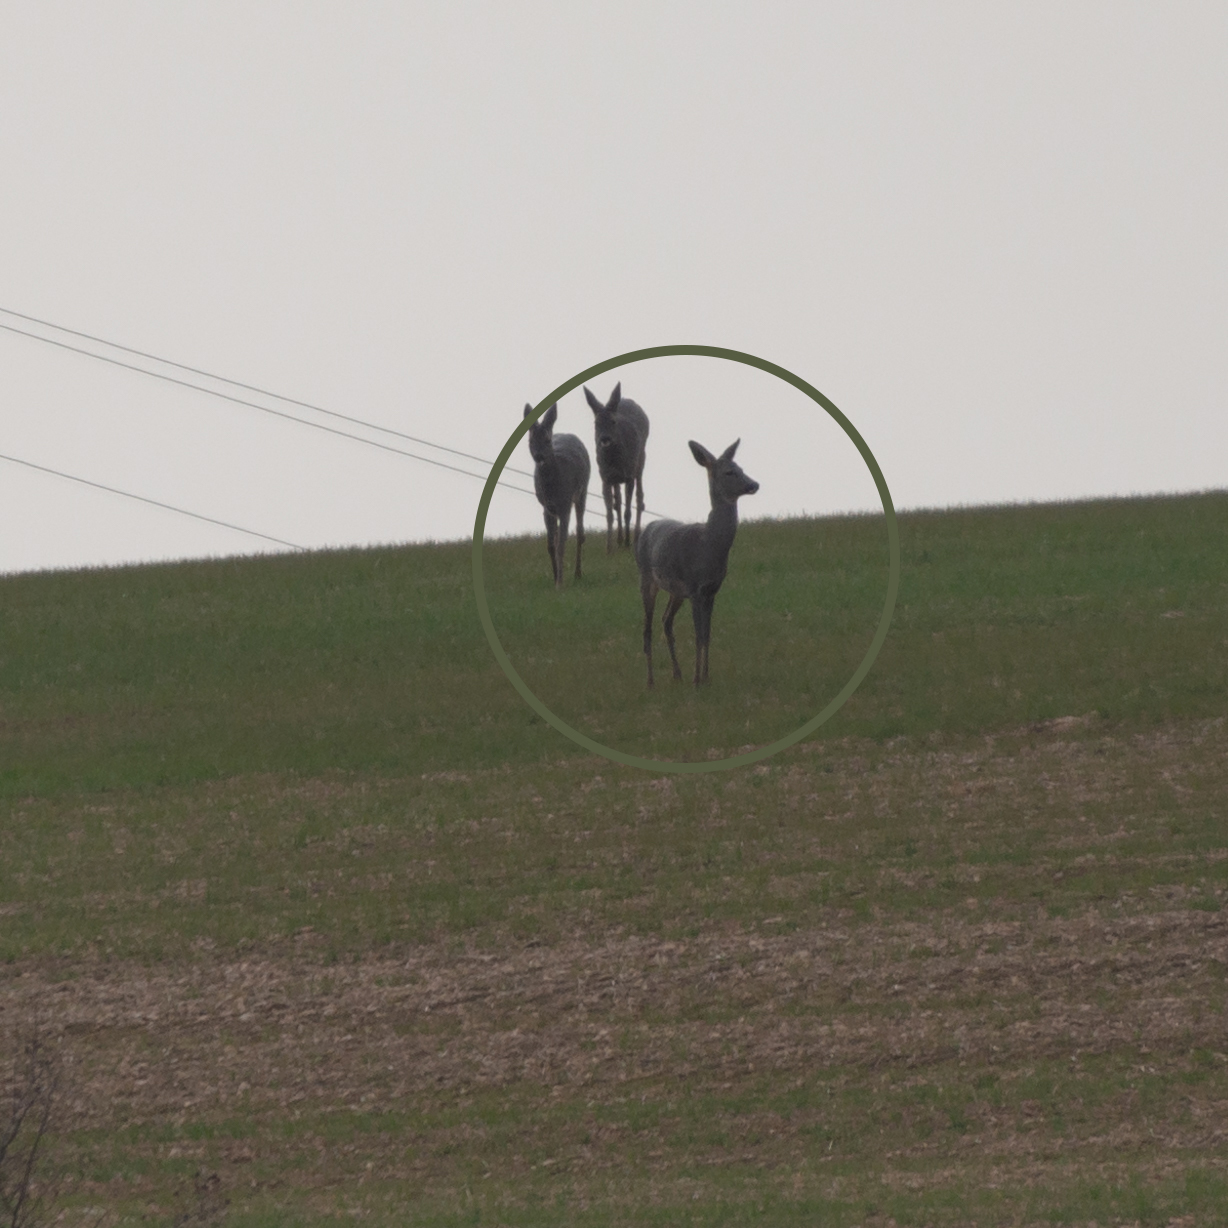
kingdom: Animalia
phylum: Chordata
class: Mammalia
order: Artiodactyla
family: Cervidae
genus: Capreolus
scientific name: Capreolus capreolus
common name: Western roe deer
